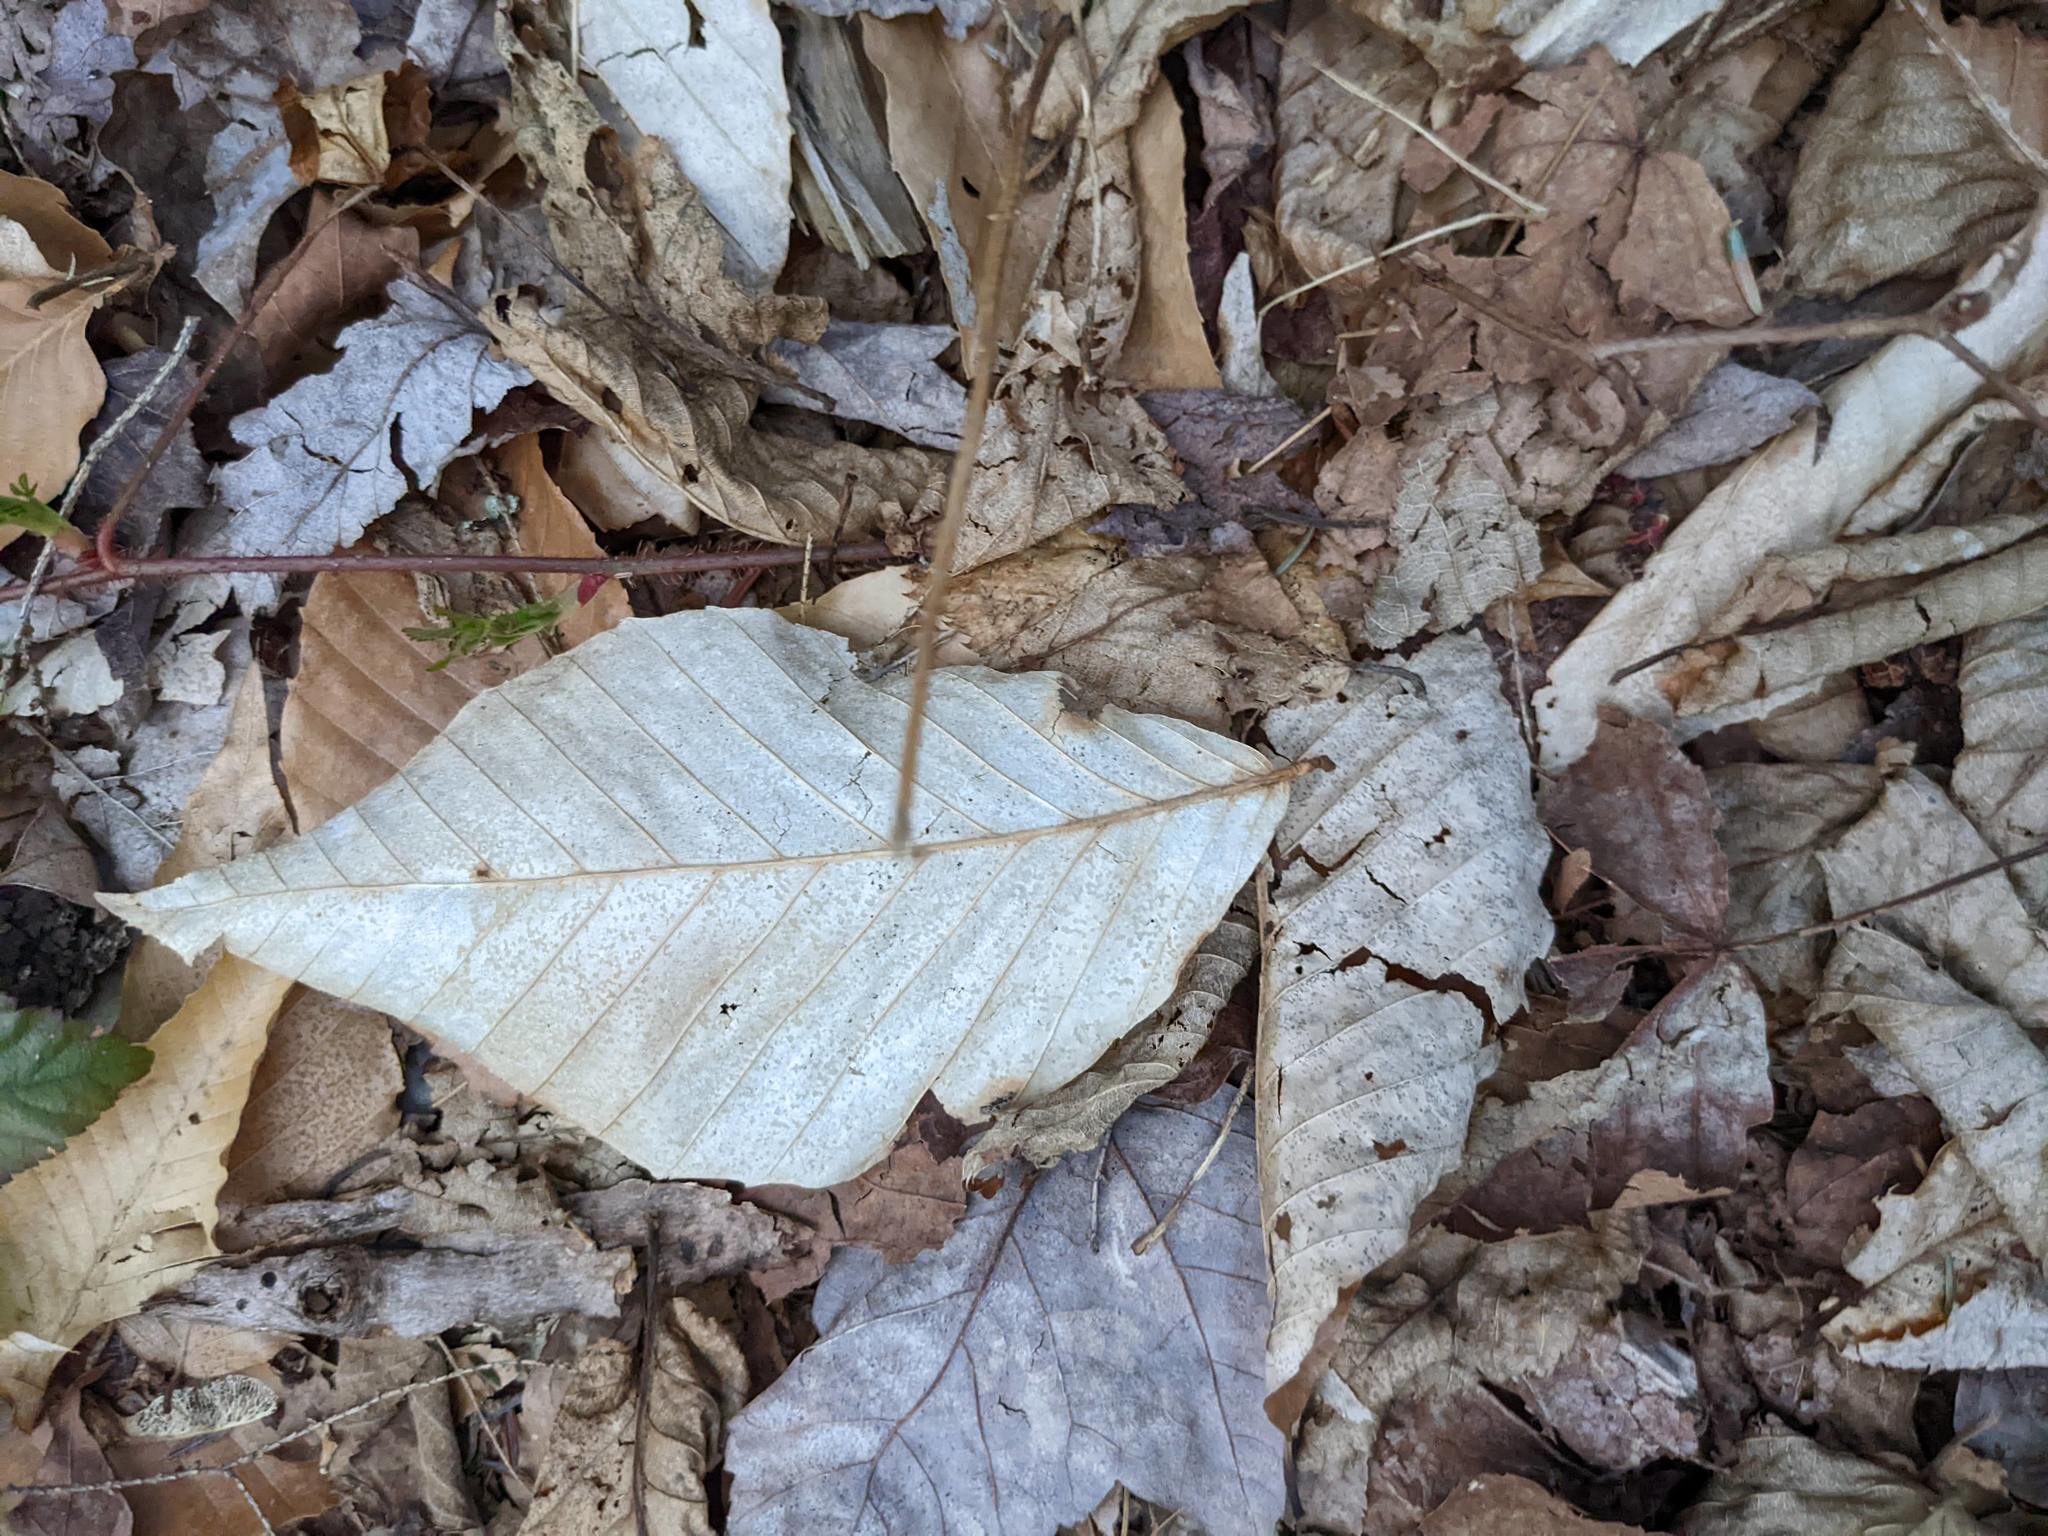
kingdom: Plantae
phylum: Tracheophyta
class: Magnoliopsida
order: Fagales
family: Fagaceae
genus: Fagus
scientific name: Fagus grandifolia
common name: American beech
